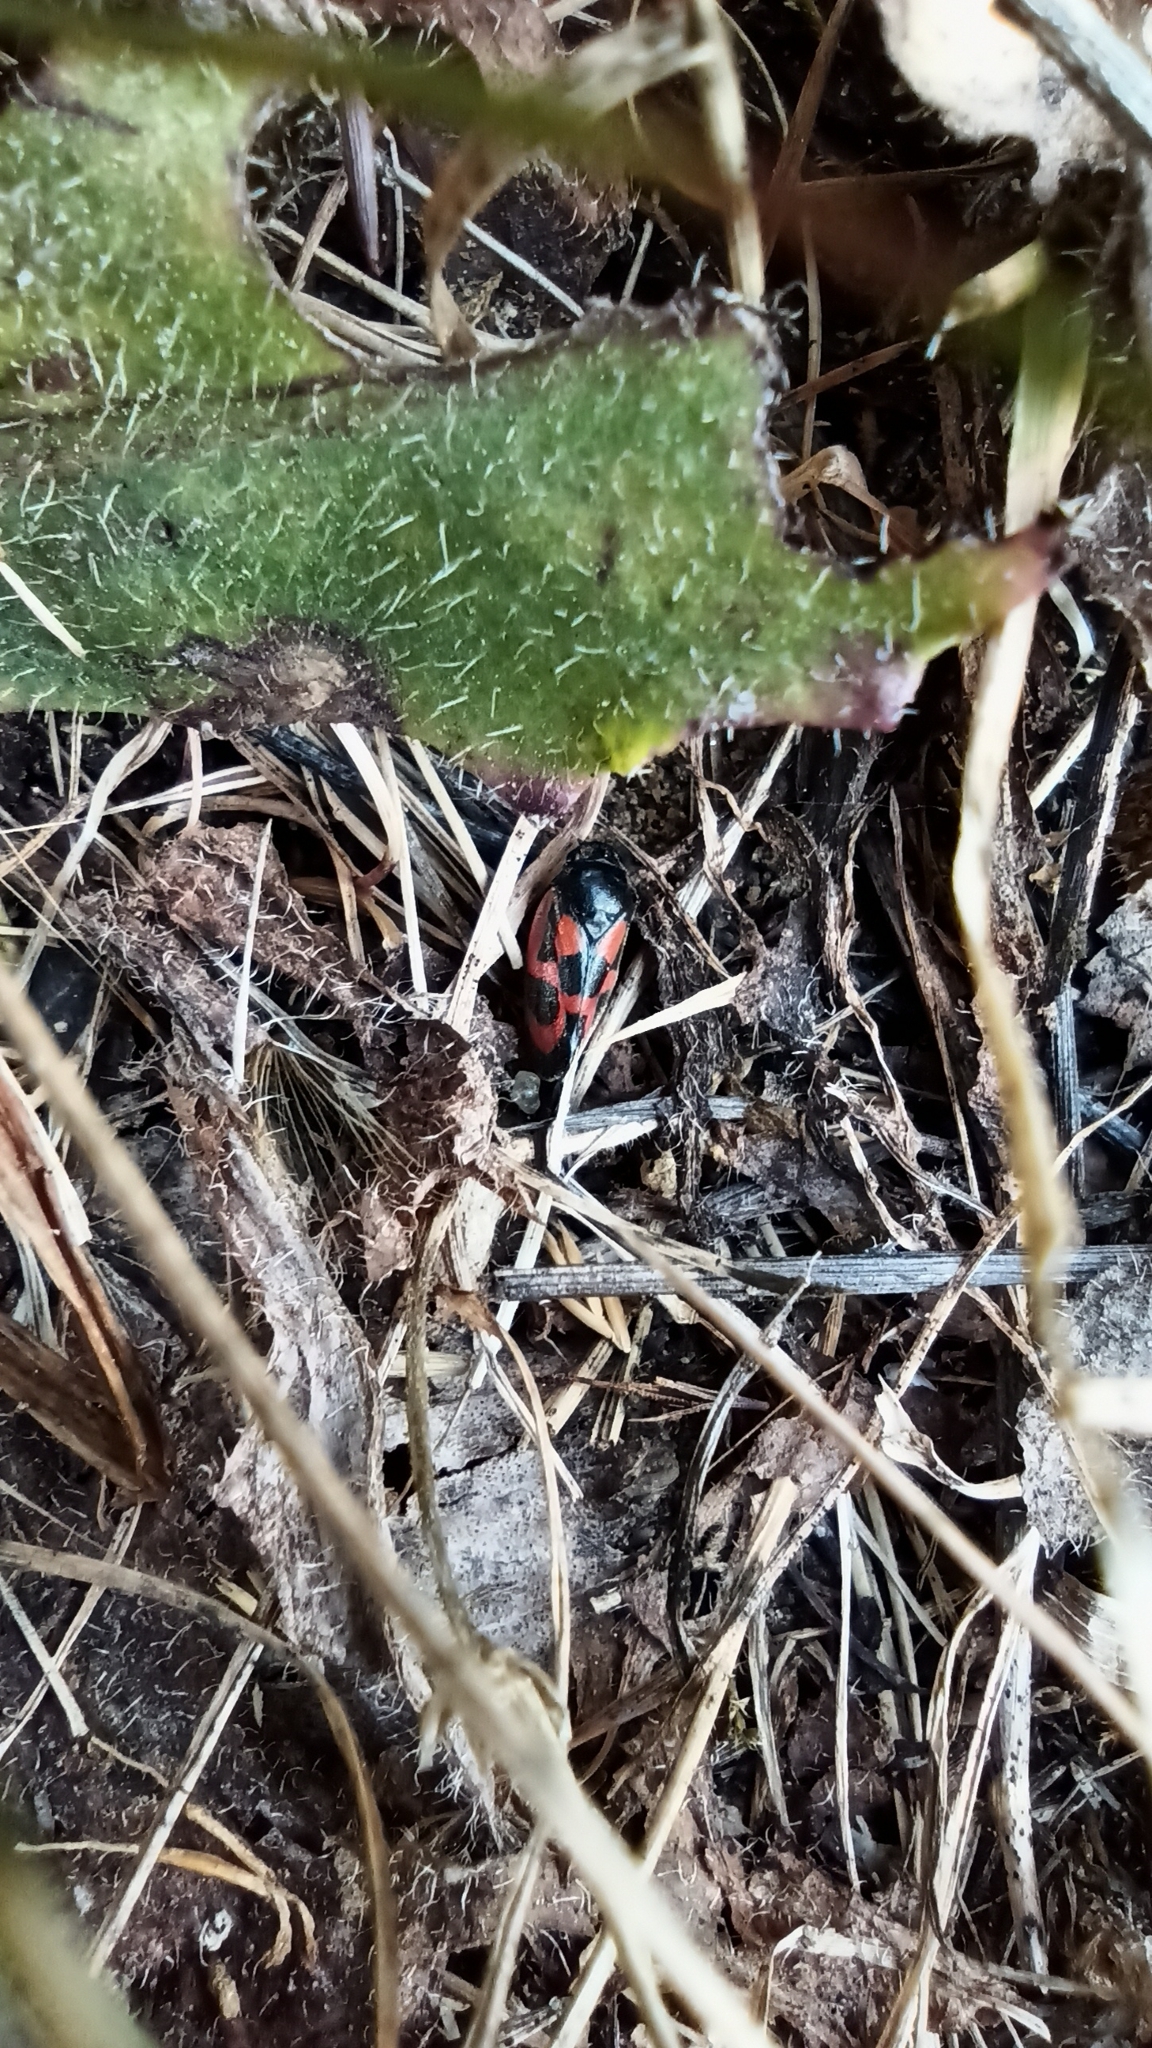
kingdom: Animalia
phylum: Arthropoda
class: Insecta
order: Hemiptera
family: Cercopidae
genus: Cercopis
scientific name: Cercopis vulnerata
